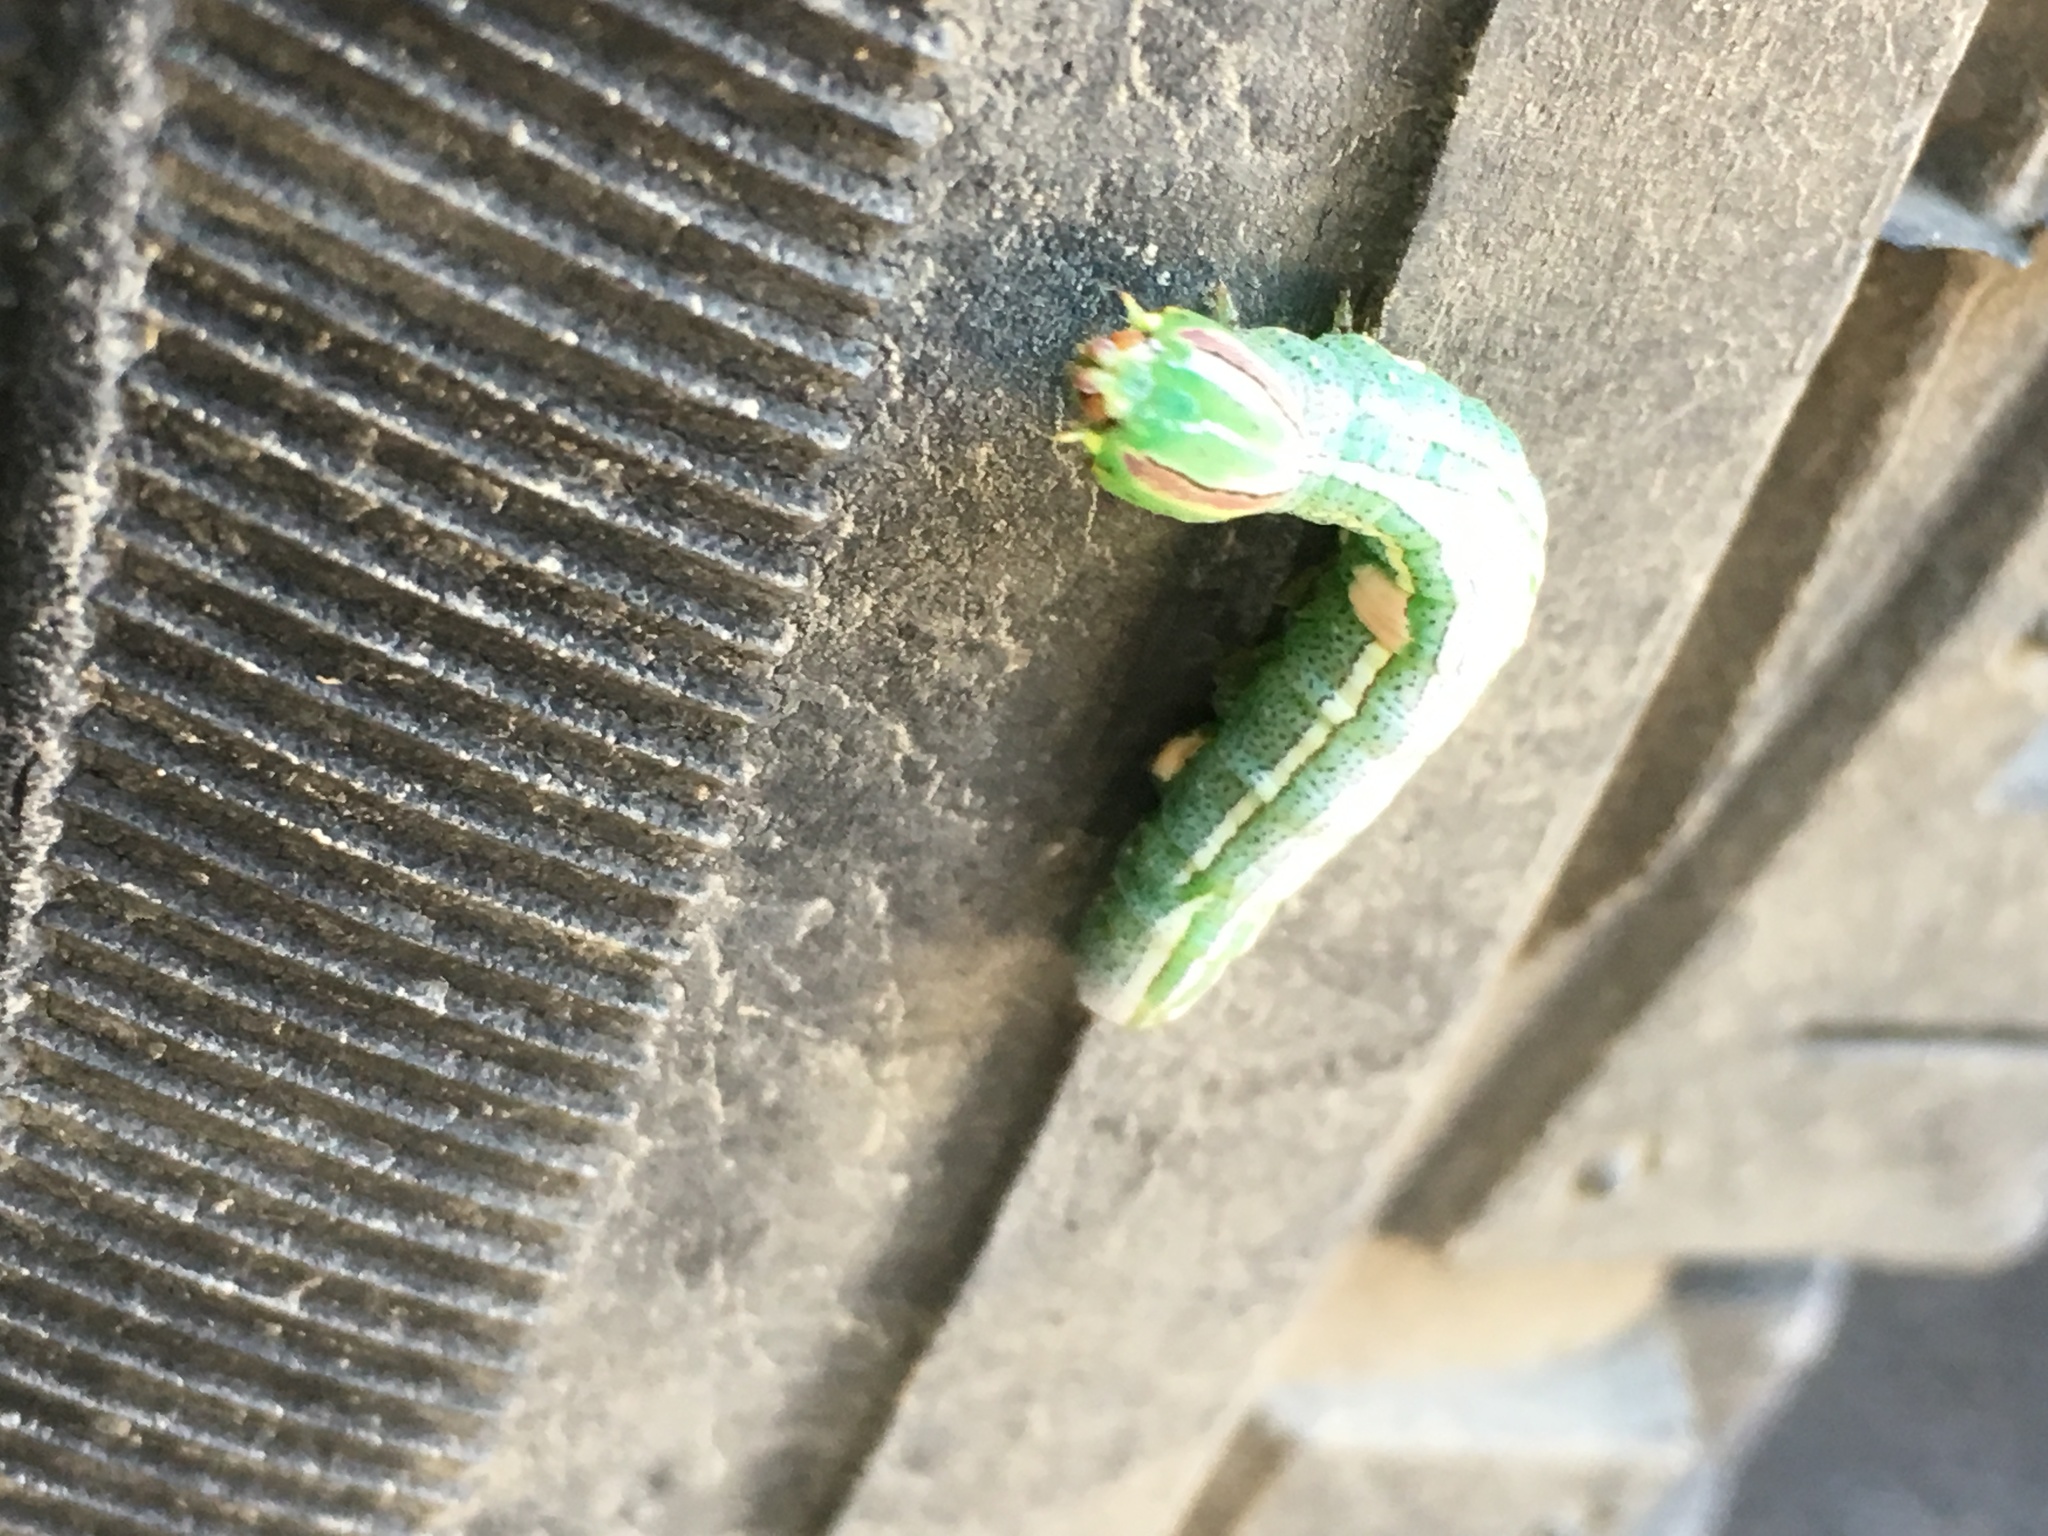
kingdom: Animalia
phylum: Arthropoda
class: Insecta
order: Lepidoptera
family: Notodontidae
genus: Disphragis
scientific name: Disphragis Cecrita guttivitta
